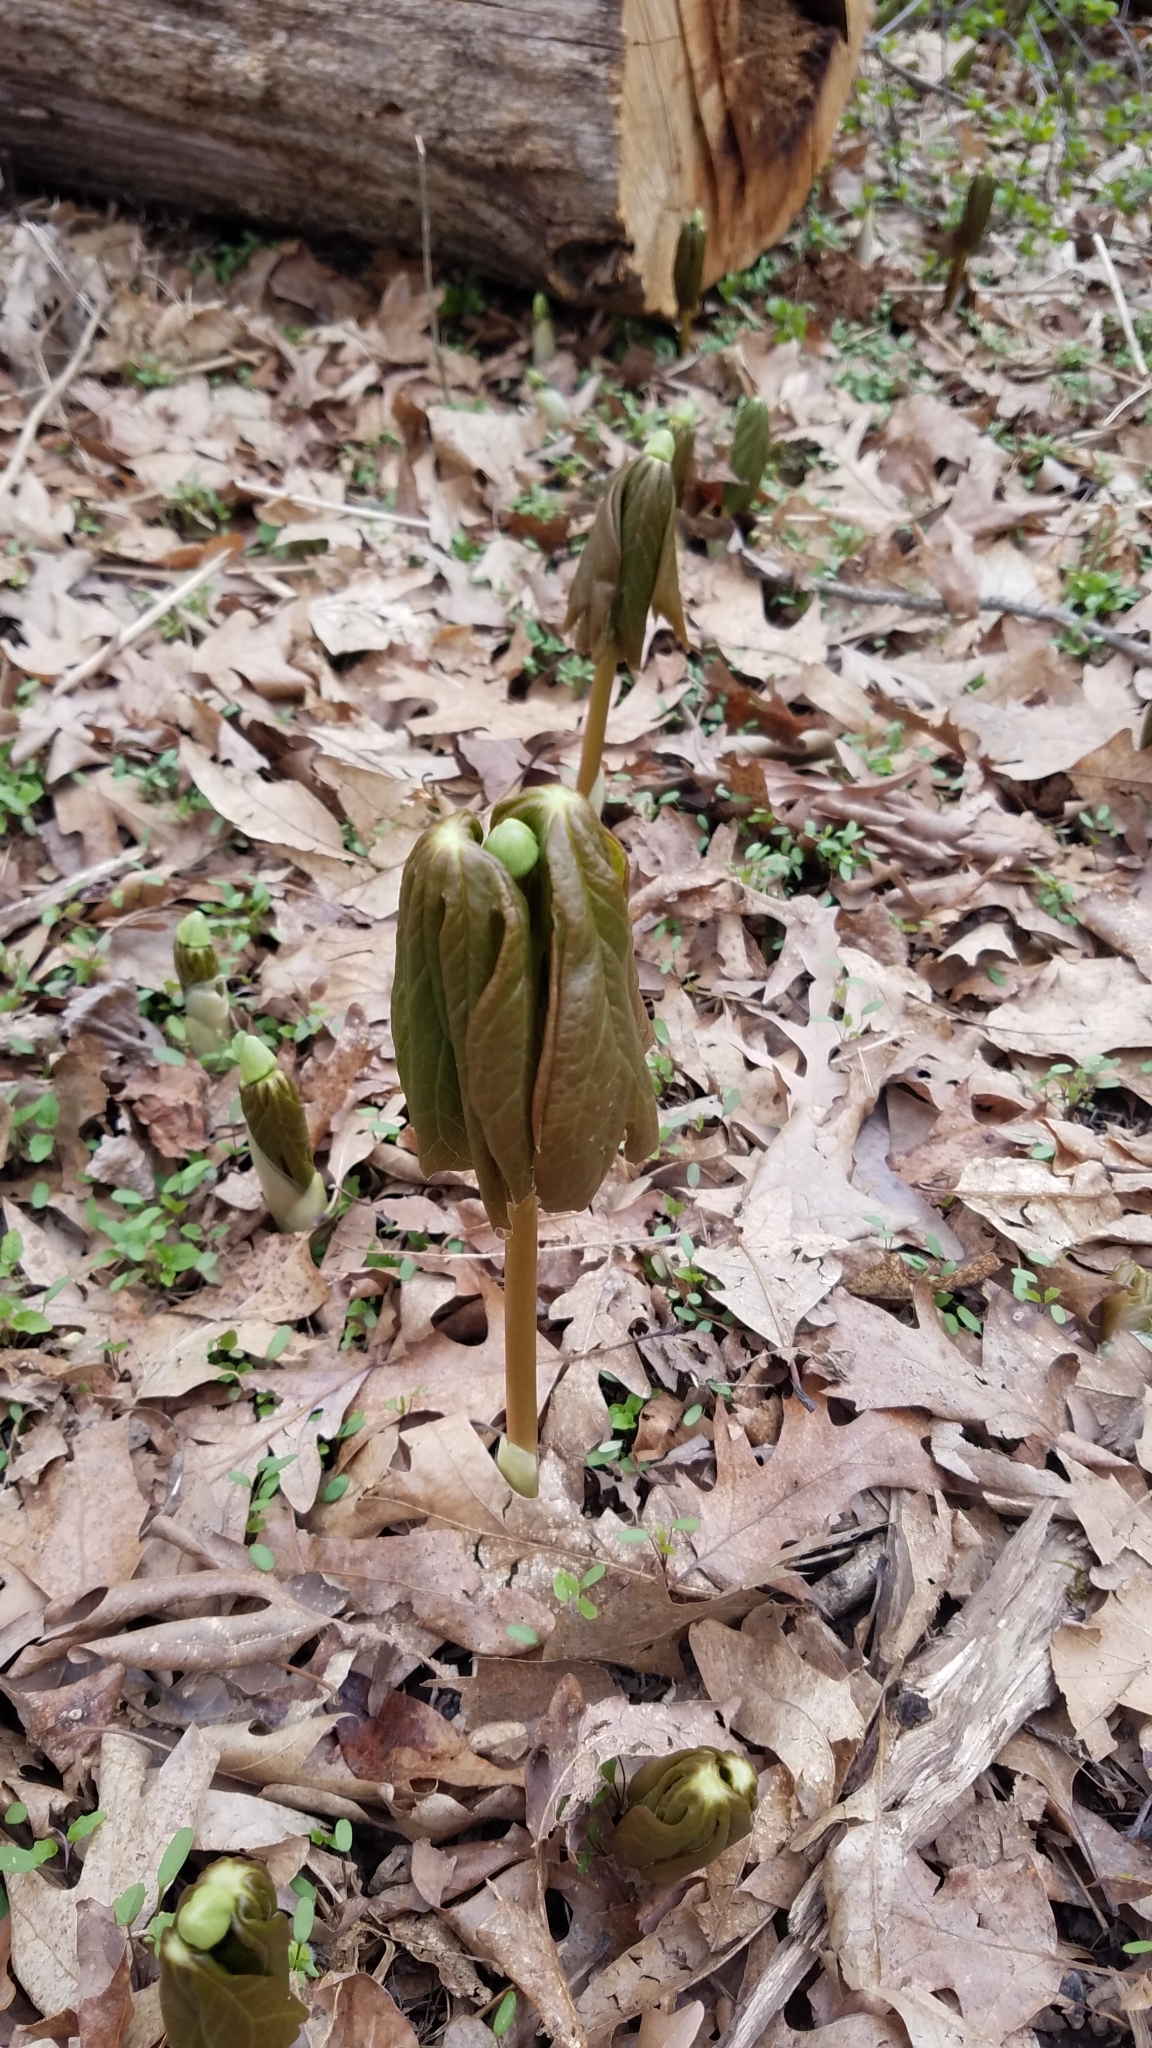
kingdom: Plantae
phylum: Tracheophyta
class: Magnoliopsida
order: Ranunculales
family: Berberidaceae
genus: Podophyllum
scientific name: Podophyllum peltatum
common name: Wild mandrake
